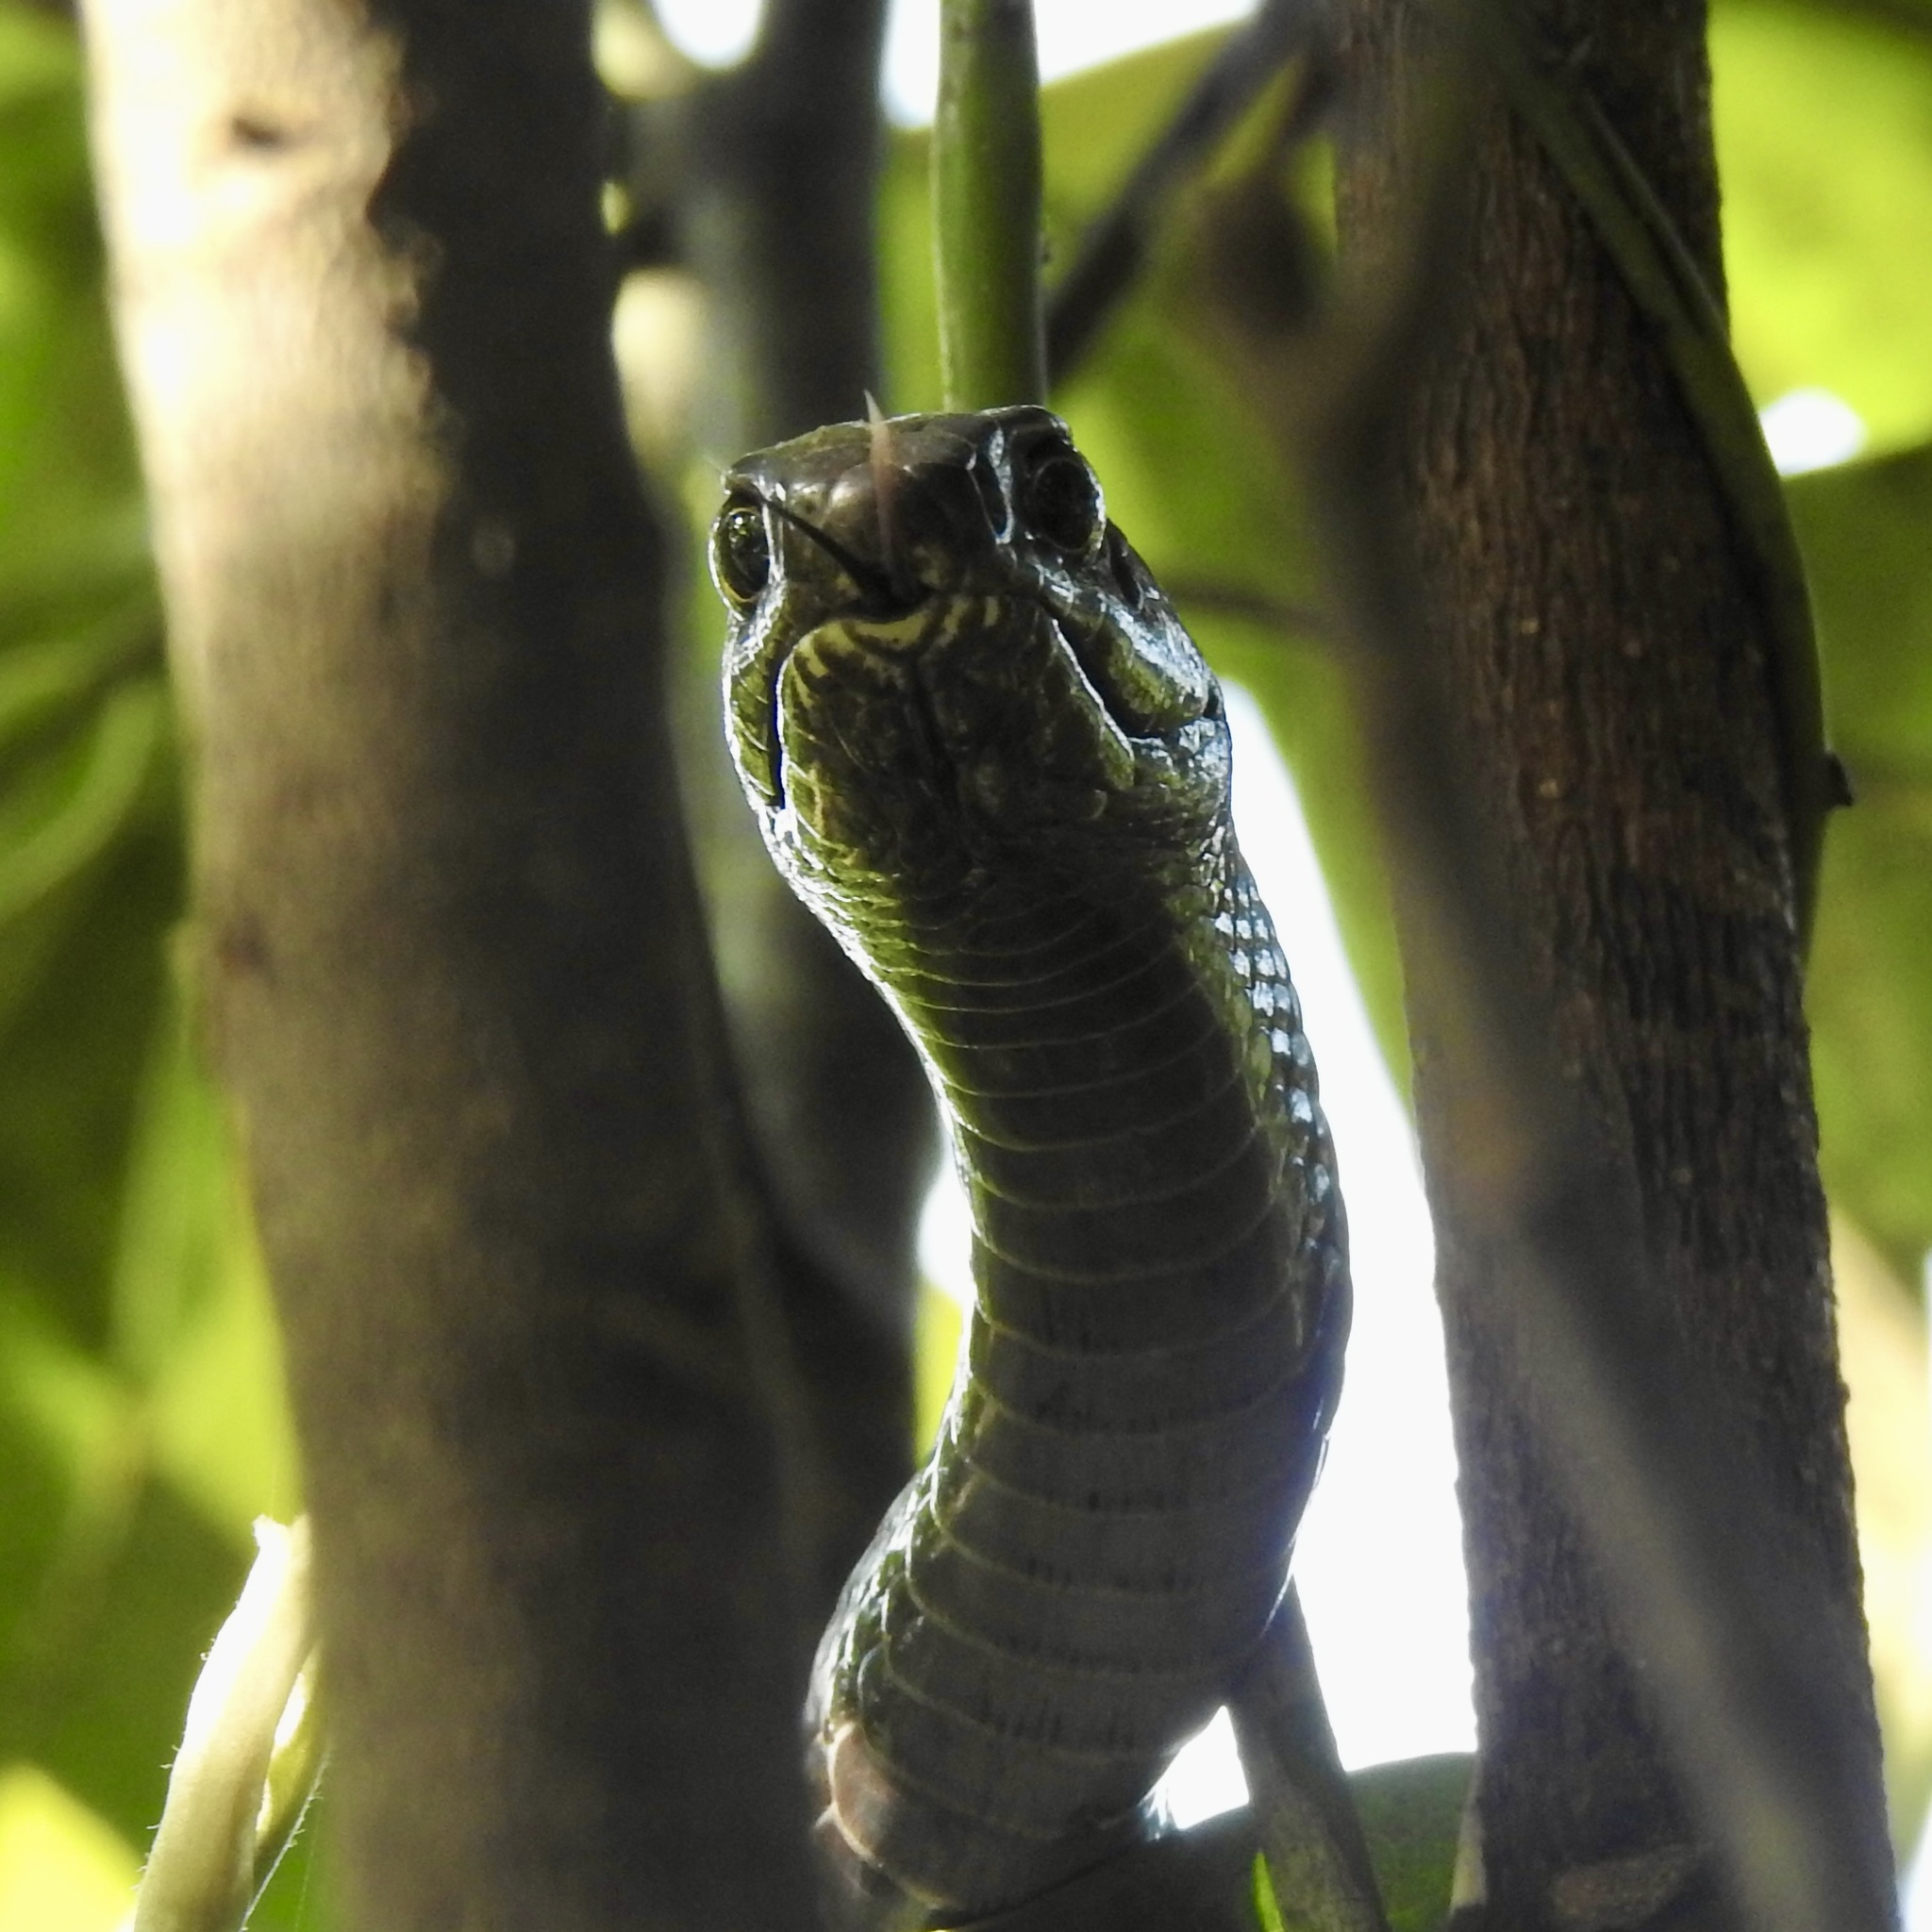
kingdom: Animalia
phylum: Chordata
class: Squamata
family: Colubridae
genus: Masticophis
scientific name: Masticophis flagellum
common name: Coachwhip
